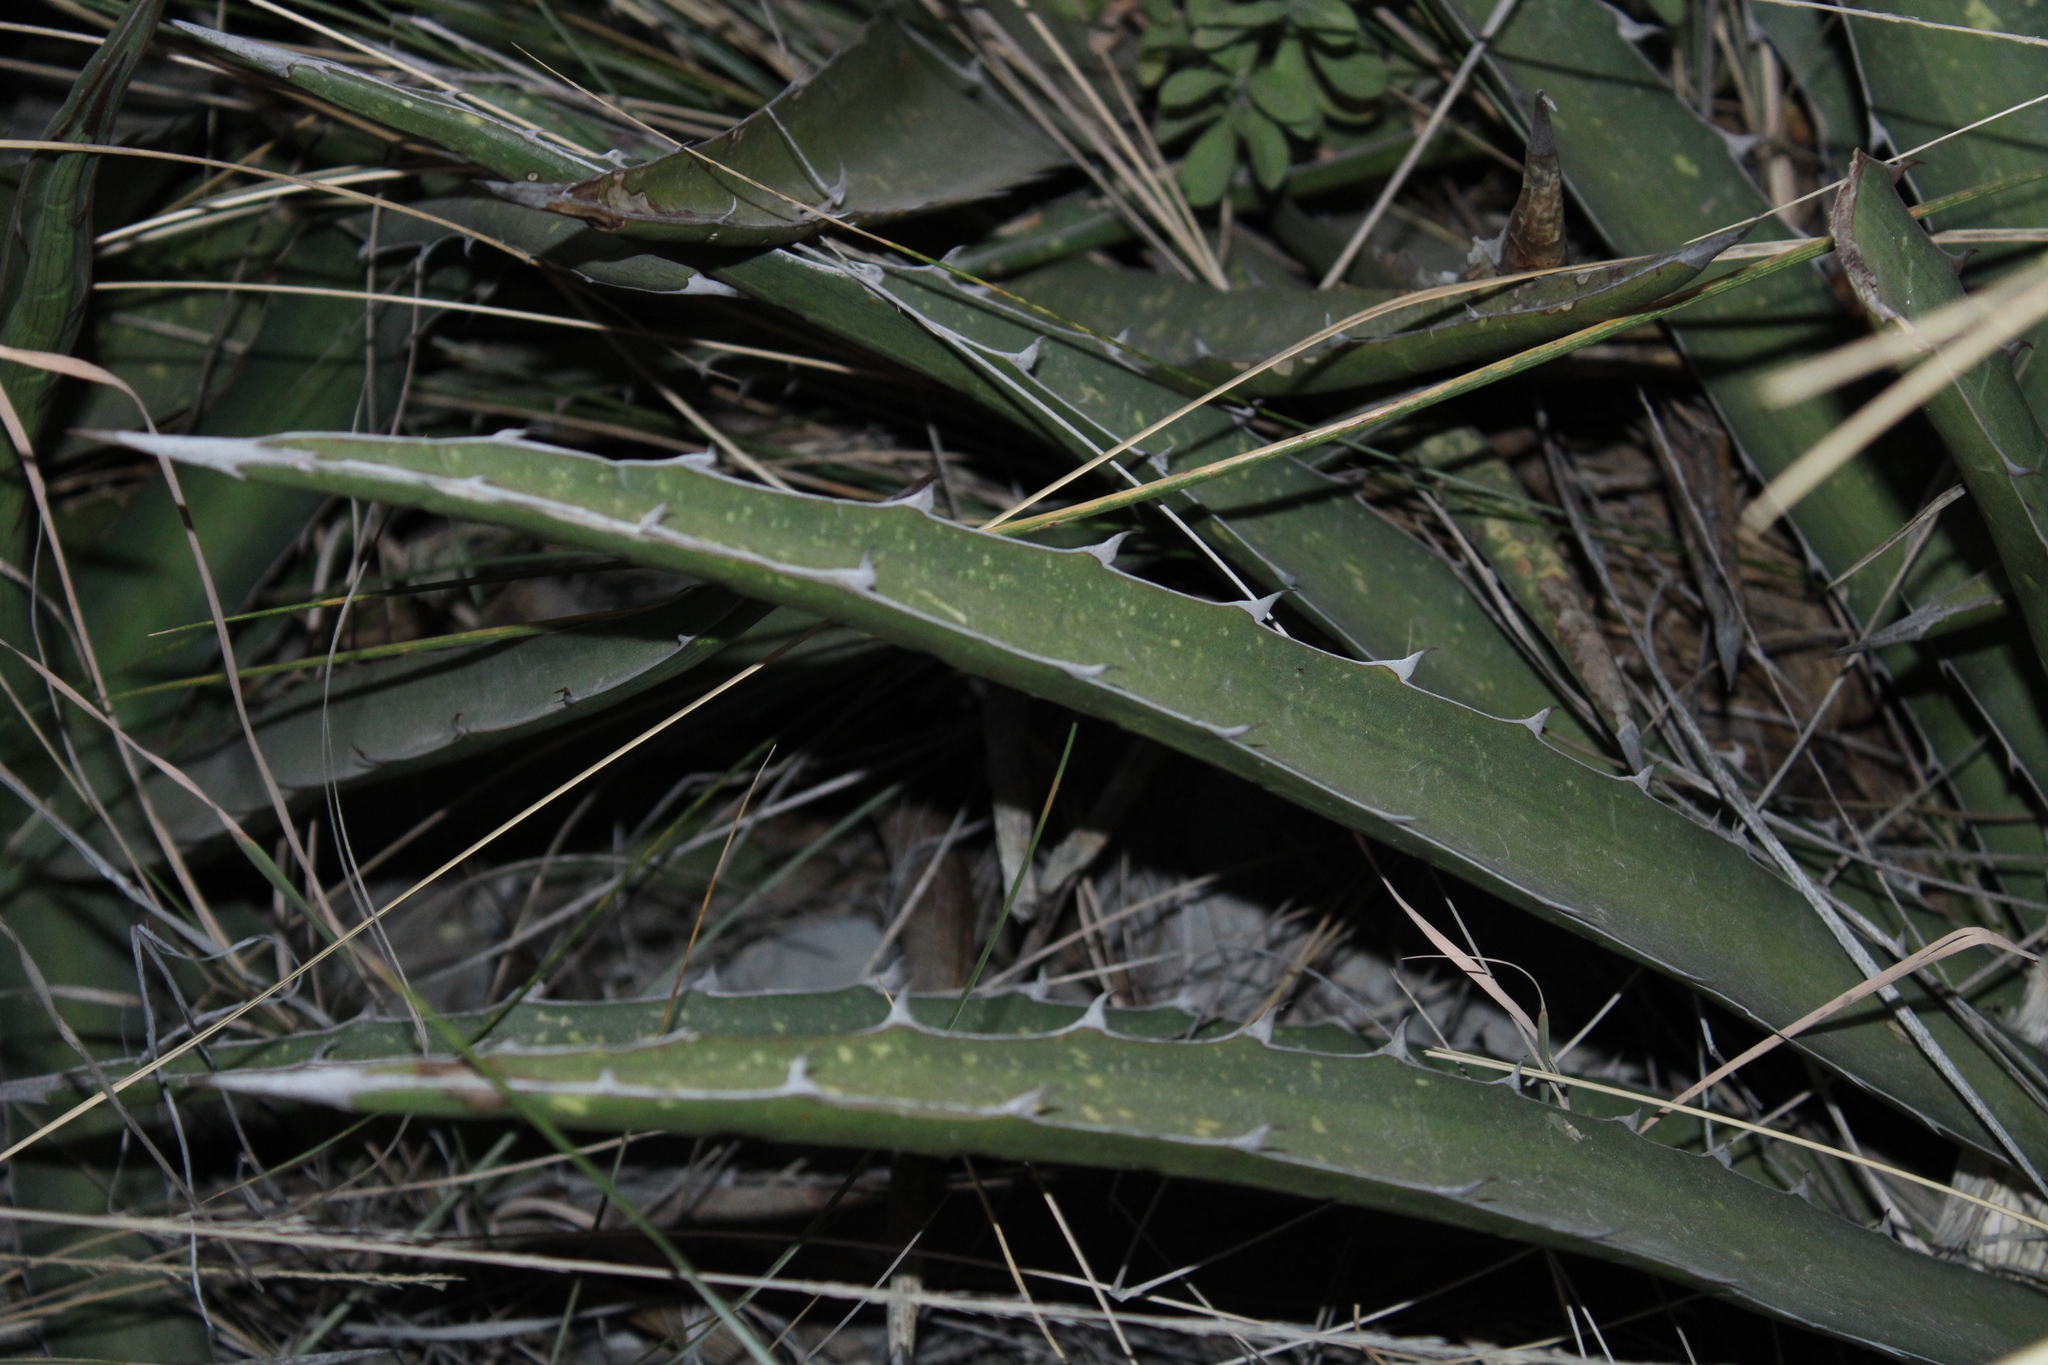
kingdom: Plantae
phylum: Tracheophyta
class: Liliopsida
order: Asparagales
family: Asparagaceae
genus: Agave
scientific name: Agave lechuguilla
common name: Lecheguilla agave
